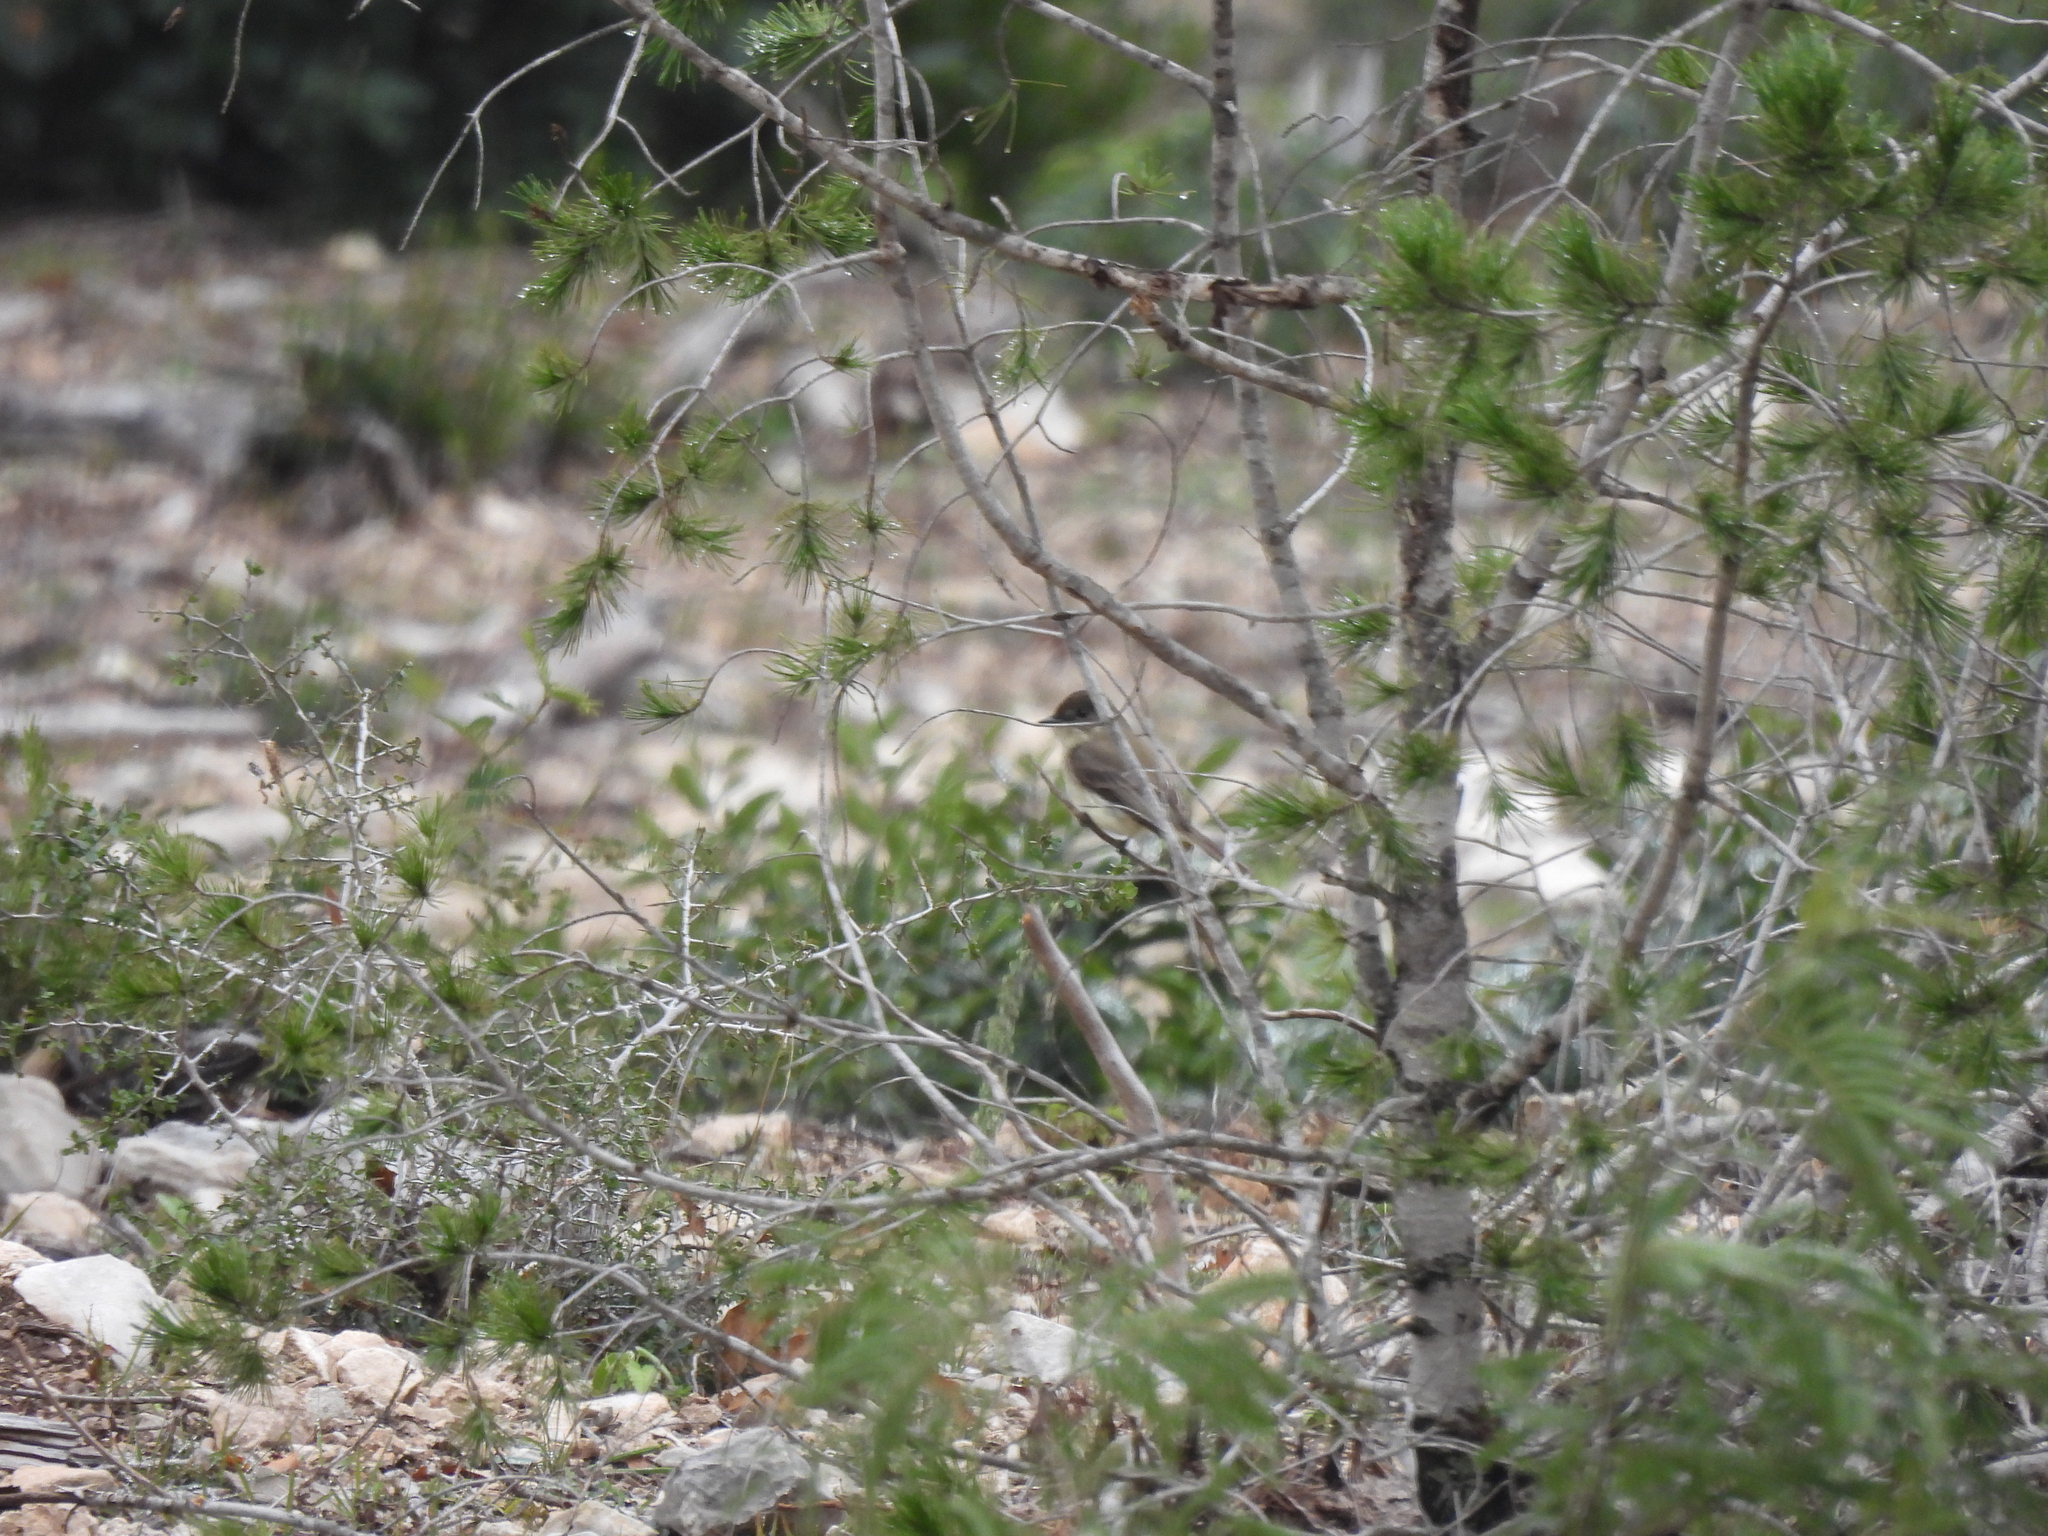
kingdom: Animalia
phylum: Chordata
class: Aves
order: Passeriformes
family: Tyrannidae
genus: Sayornis
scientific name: Sayornis phoebe
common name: Eastern phoebe
